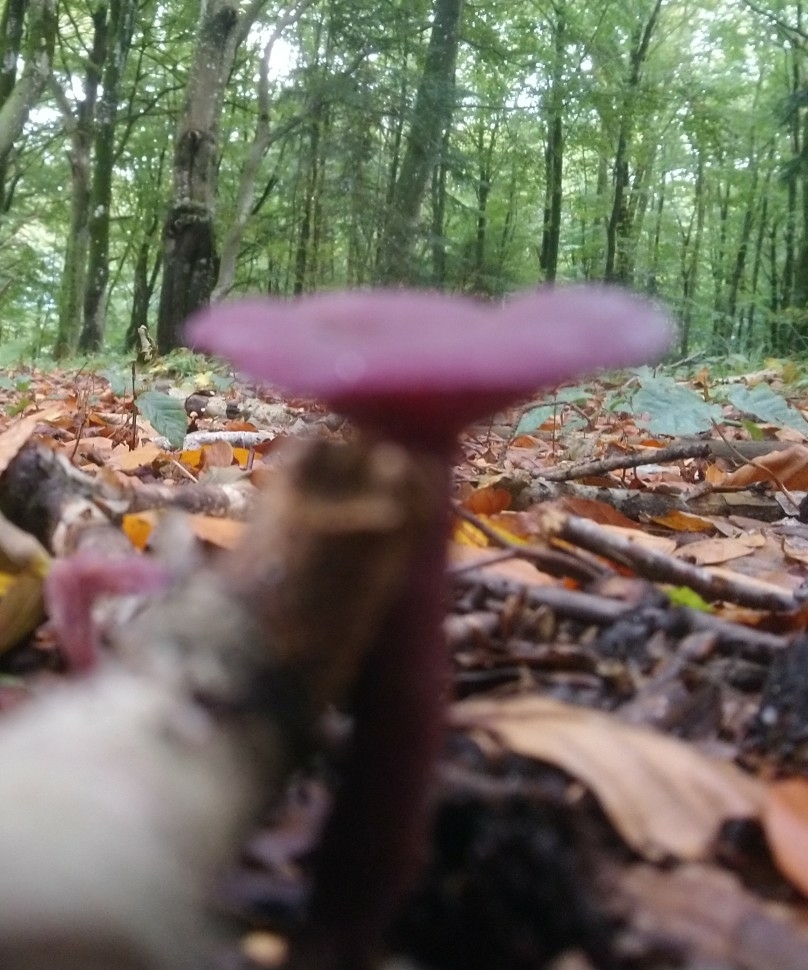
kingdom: Fungi
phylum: Basidiomycota
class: Agaricomycetes
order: Agaricales
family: Hydnangiaceae
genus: Laccaria
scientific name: Laccaria amethystina
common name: Amethyst deceiver
